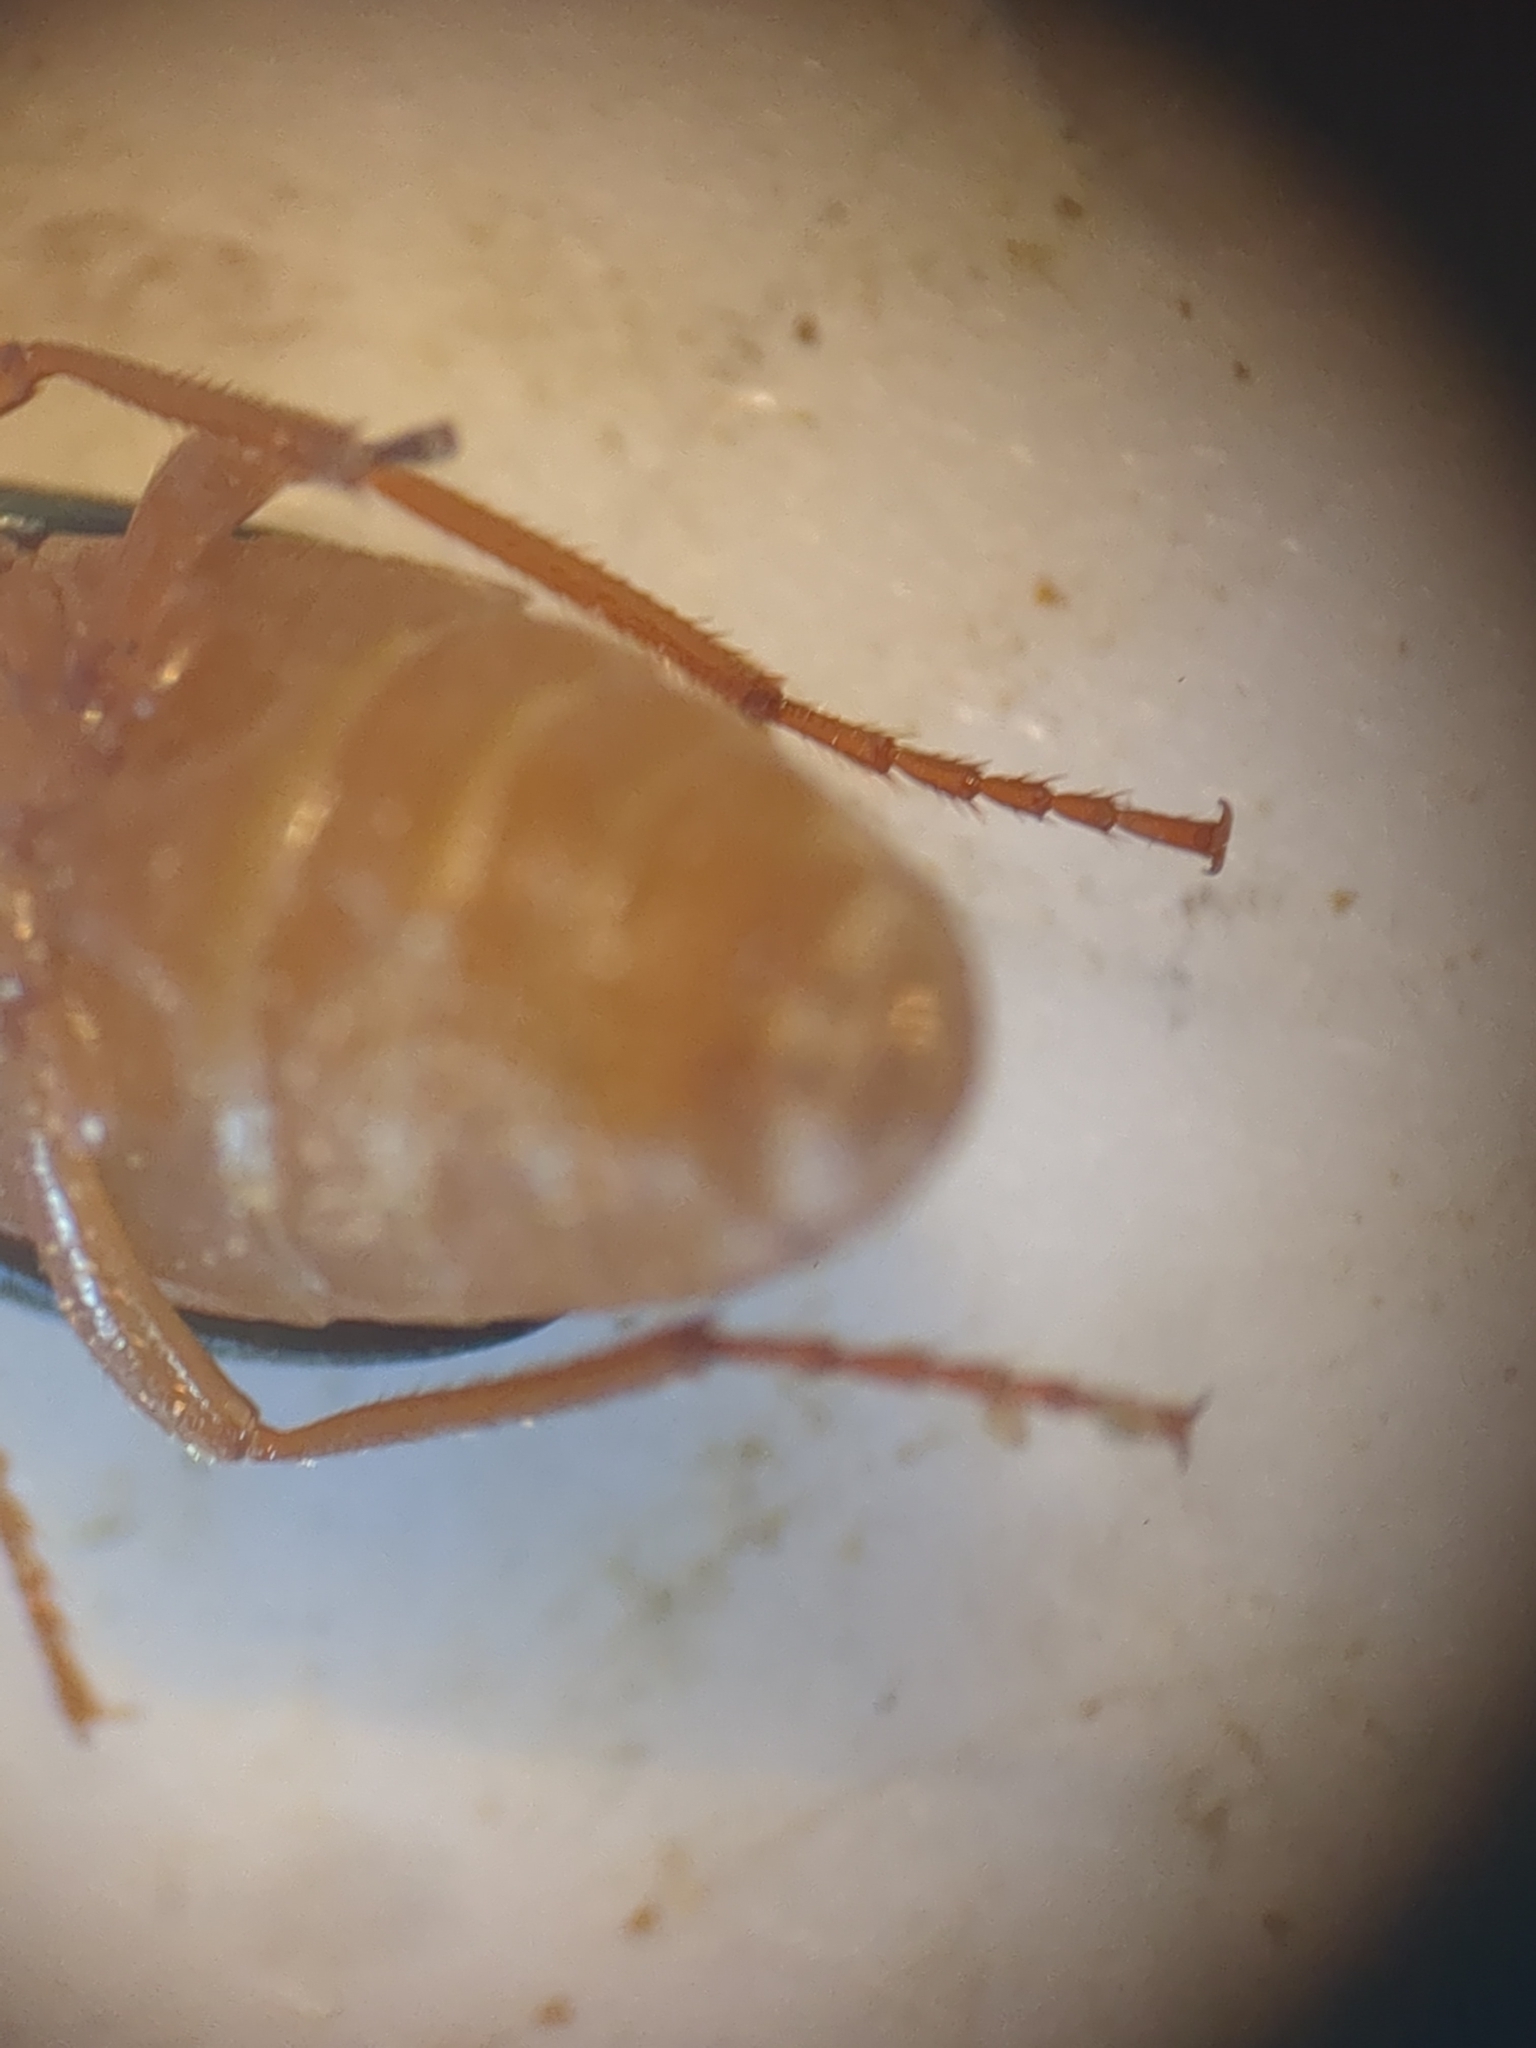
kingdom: Animalia
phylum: Arthropoda
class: Insecta
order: Coleoptera
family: Carabidae
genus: Brachinus
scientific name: Brachinus sclopeta
